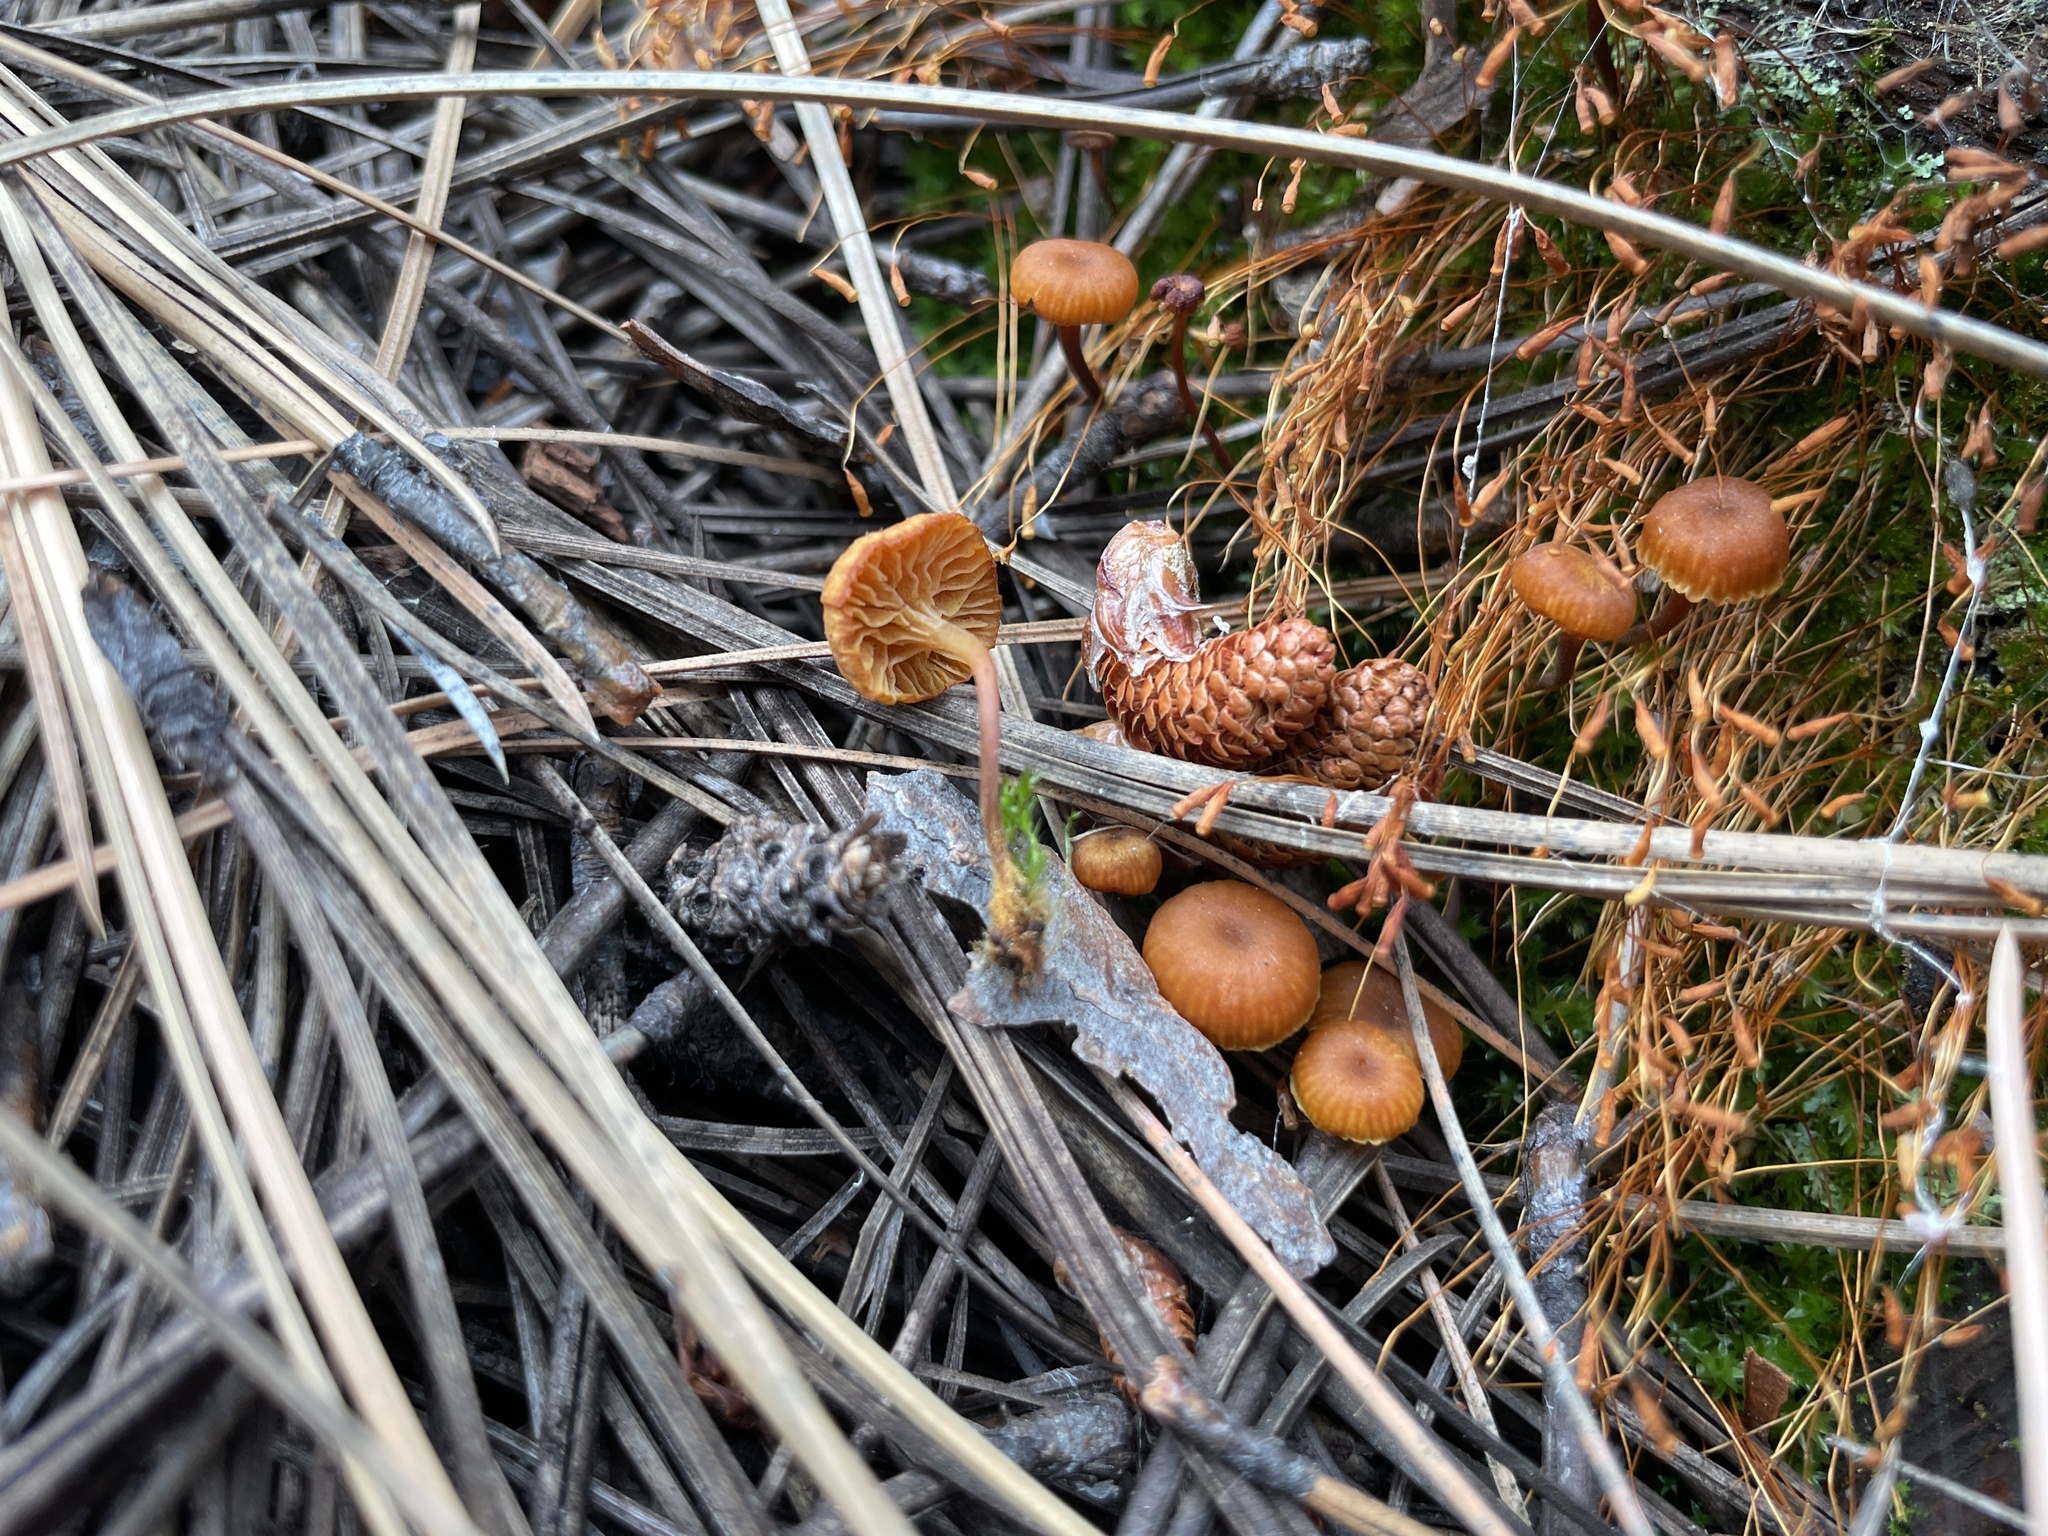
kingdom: Fungi
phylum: Basidiomycota
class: Agaricomycetes
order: Agaricales
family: Mycenaceae
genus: Xeromphalina
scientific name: Xeromphalina enigmatica
